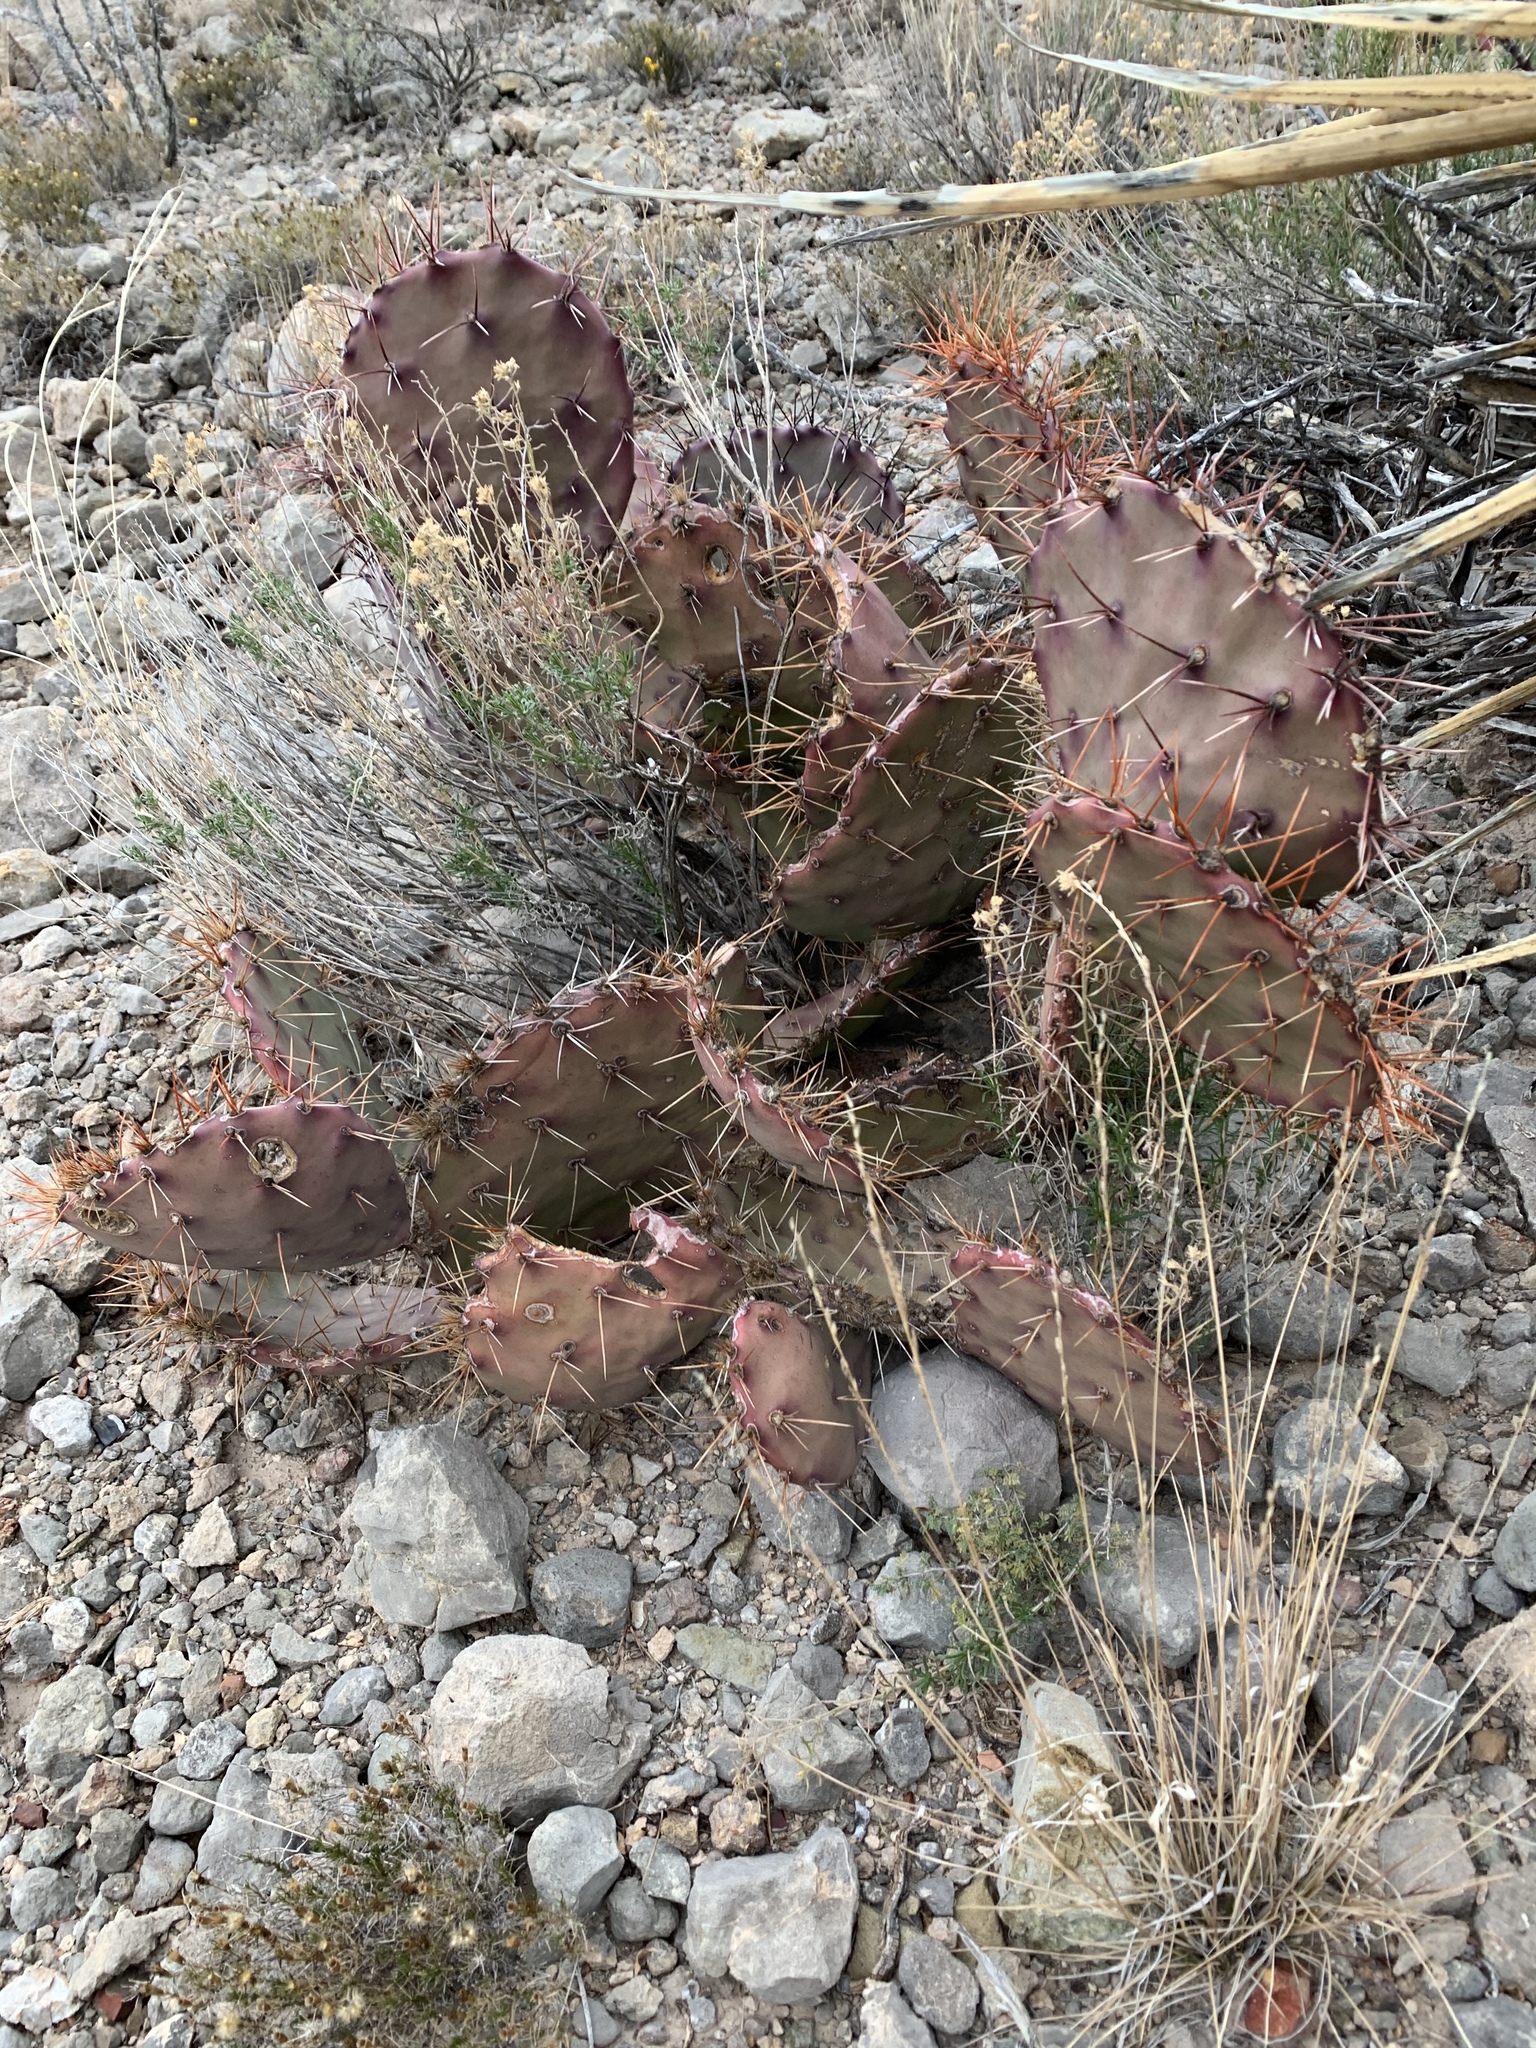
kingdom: Plantae
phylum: Tracheophyta
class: Magnoliopsida
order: Caryophyllales
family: Cactaceae
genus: Opuntia
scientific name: Opuntia macrocentra
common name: Purple prickly-pear
